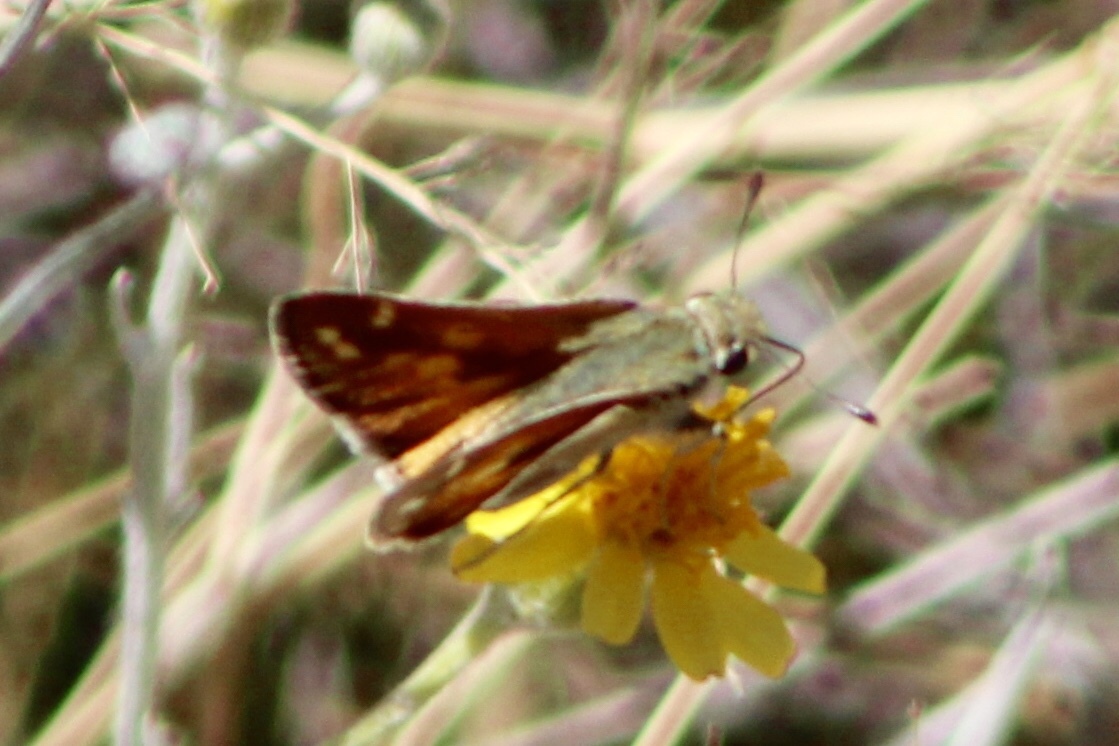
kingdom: Animalia
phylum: Arthropoda
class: Insecta
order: Lepidoptera
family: Hesperiidae
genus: Hesperia
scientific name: Hesperia pahaska
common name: Pahaska skipper
